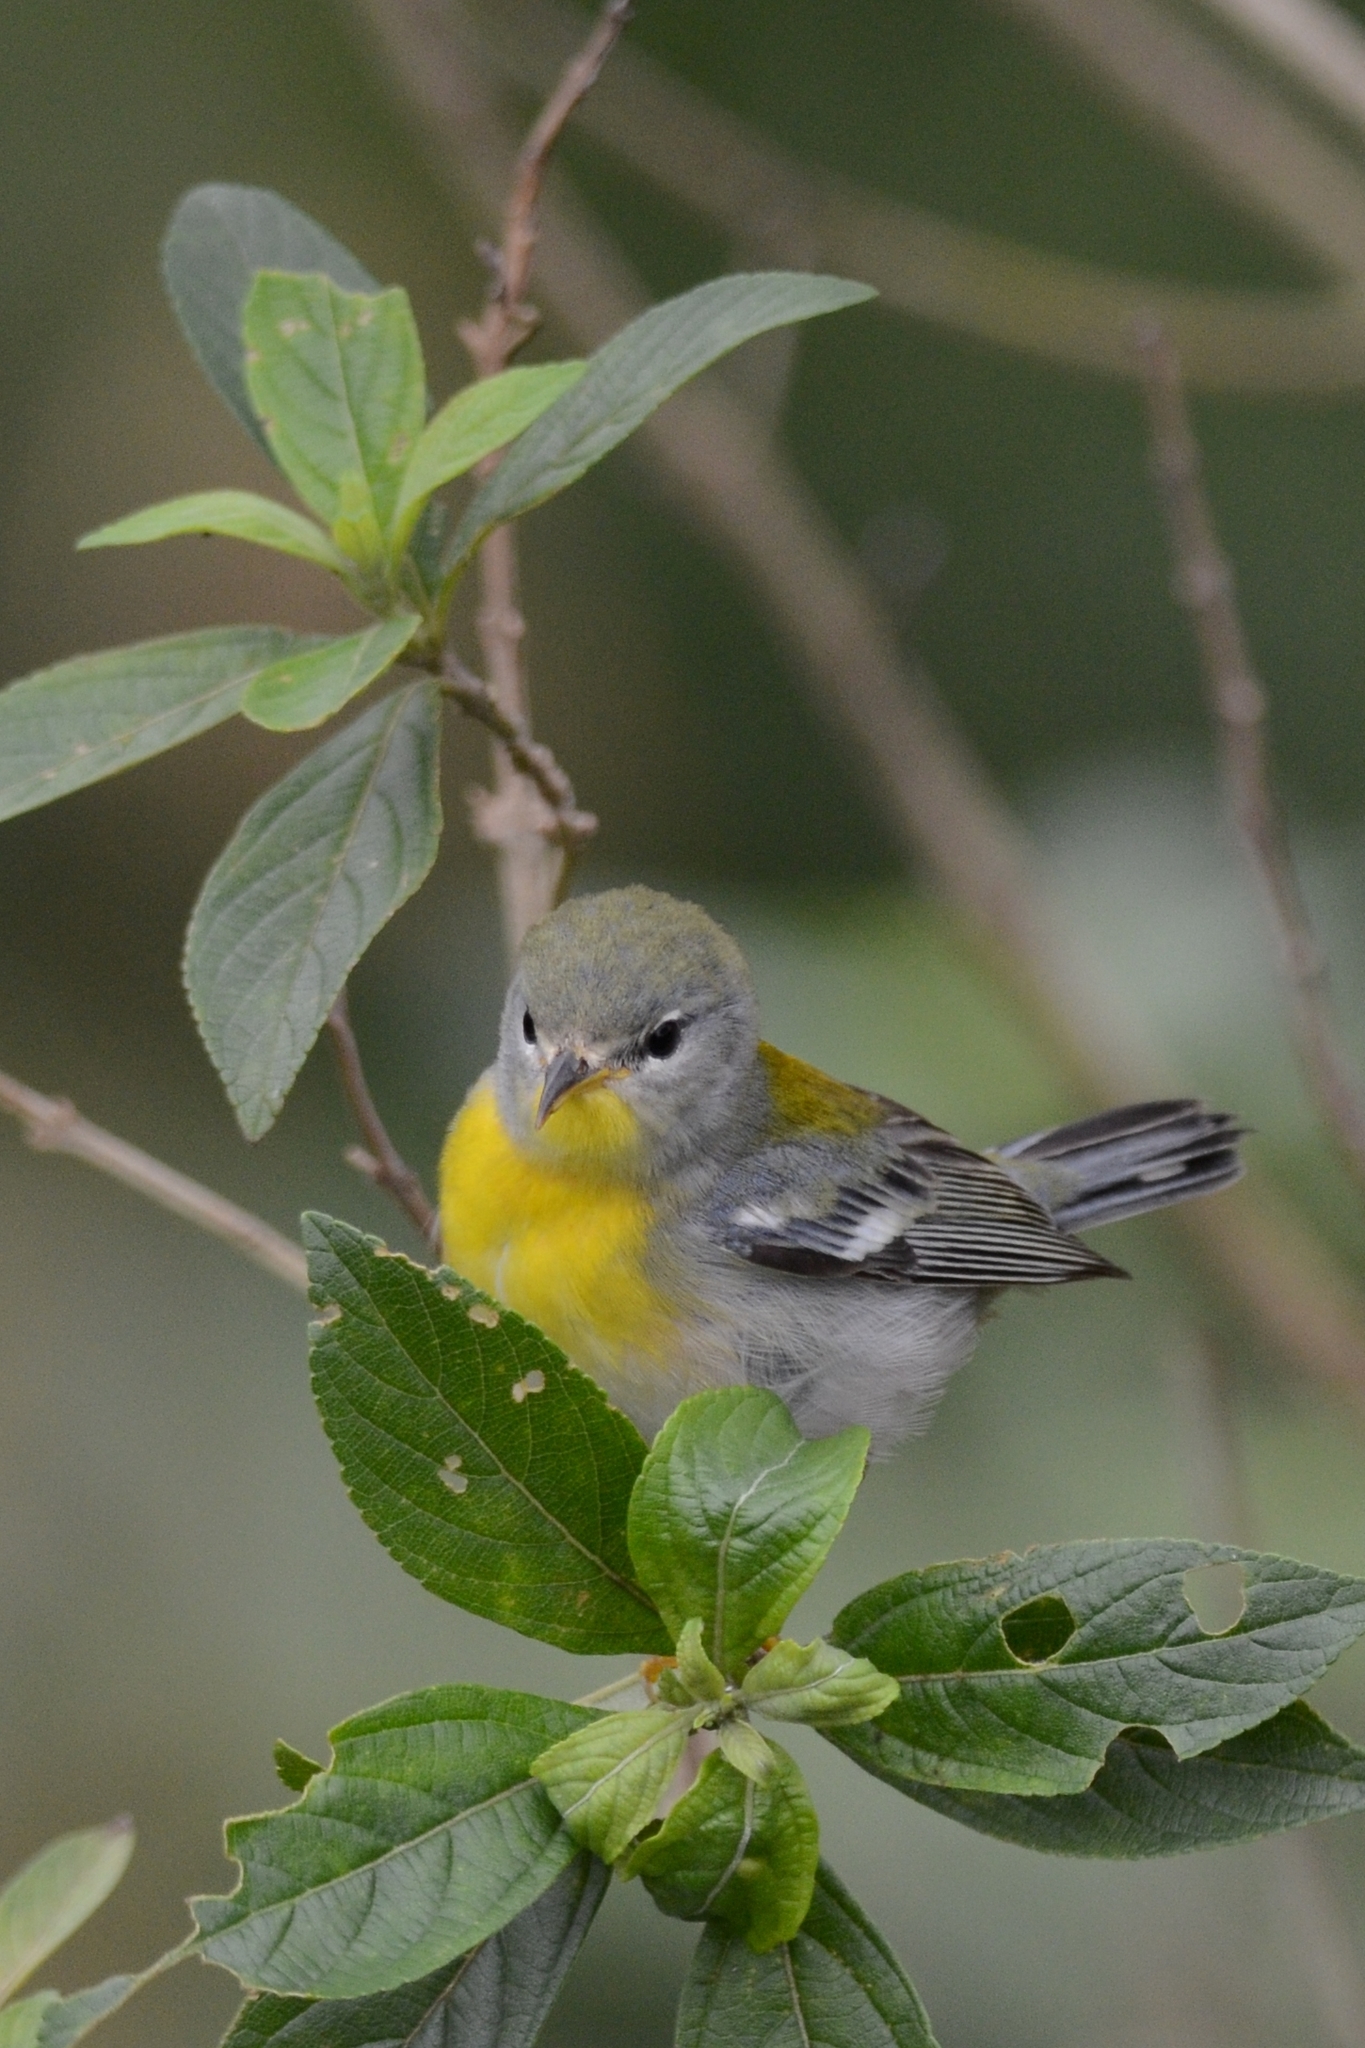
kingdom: Animalia
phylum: Chordata
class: Aves
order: Passeriformes
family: Parulidae
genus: Setophaga
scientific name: Setophaga americana
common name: Northern parula
